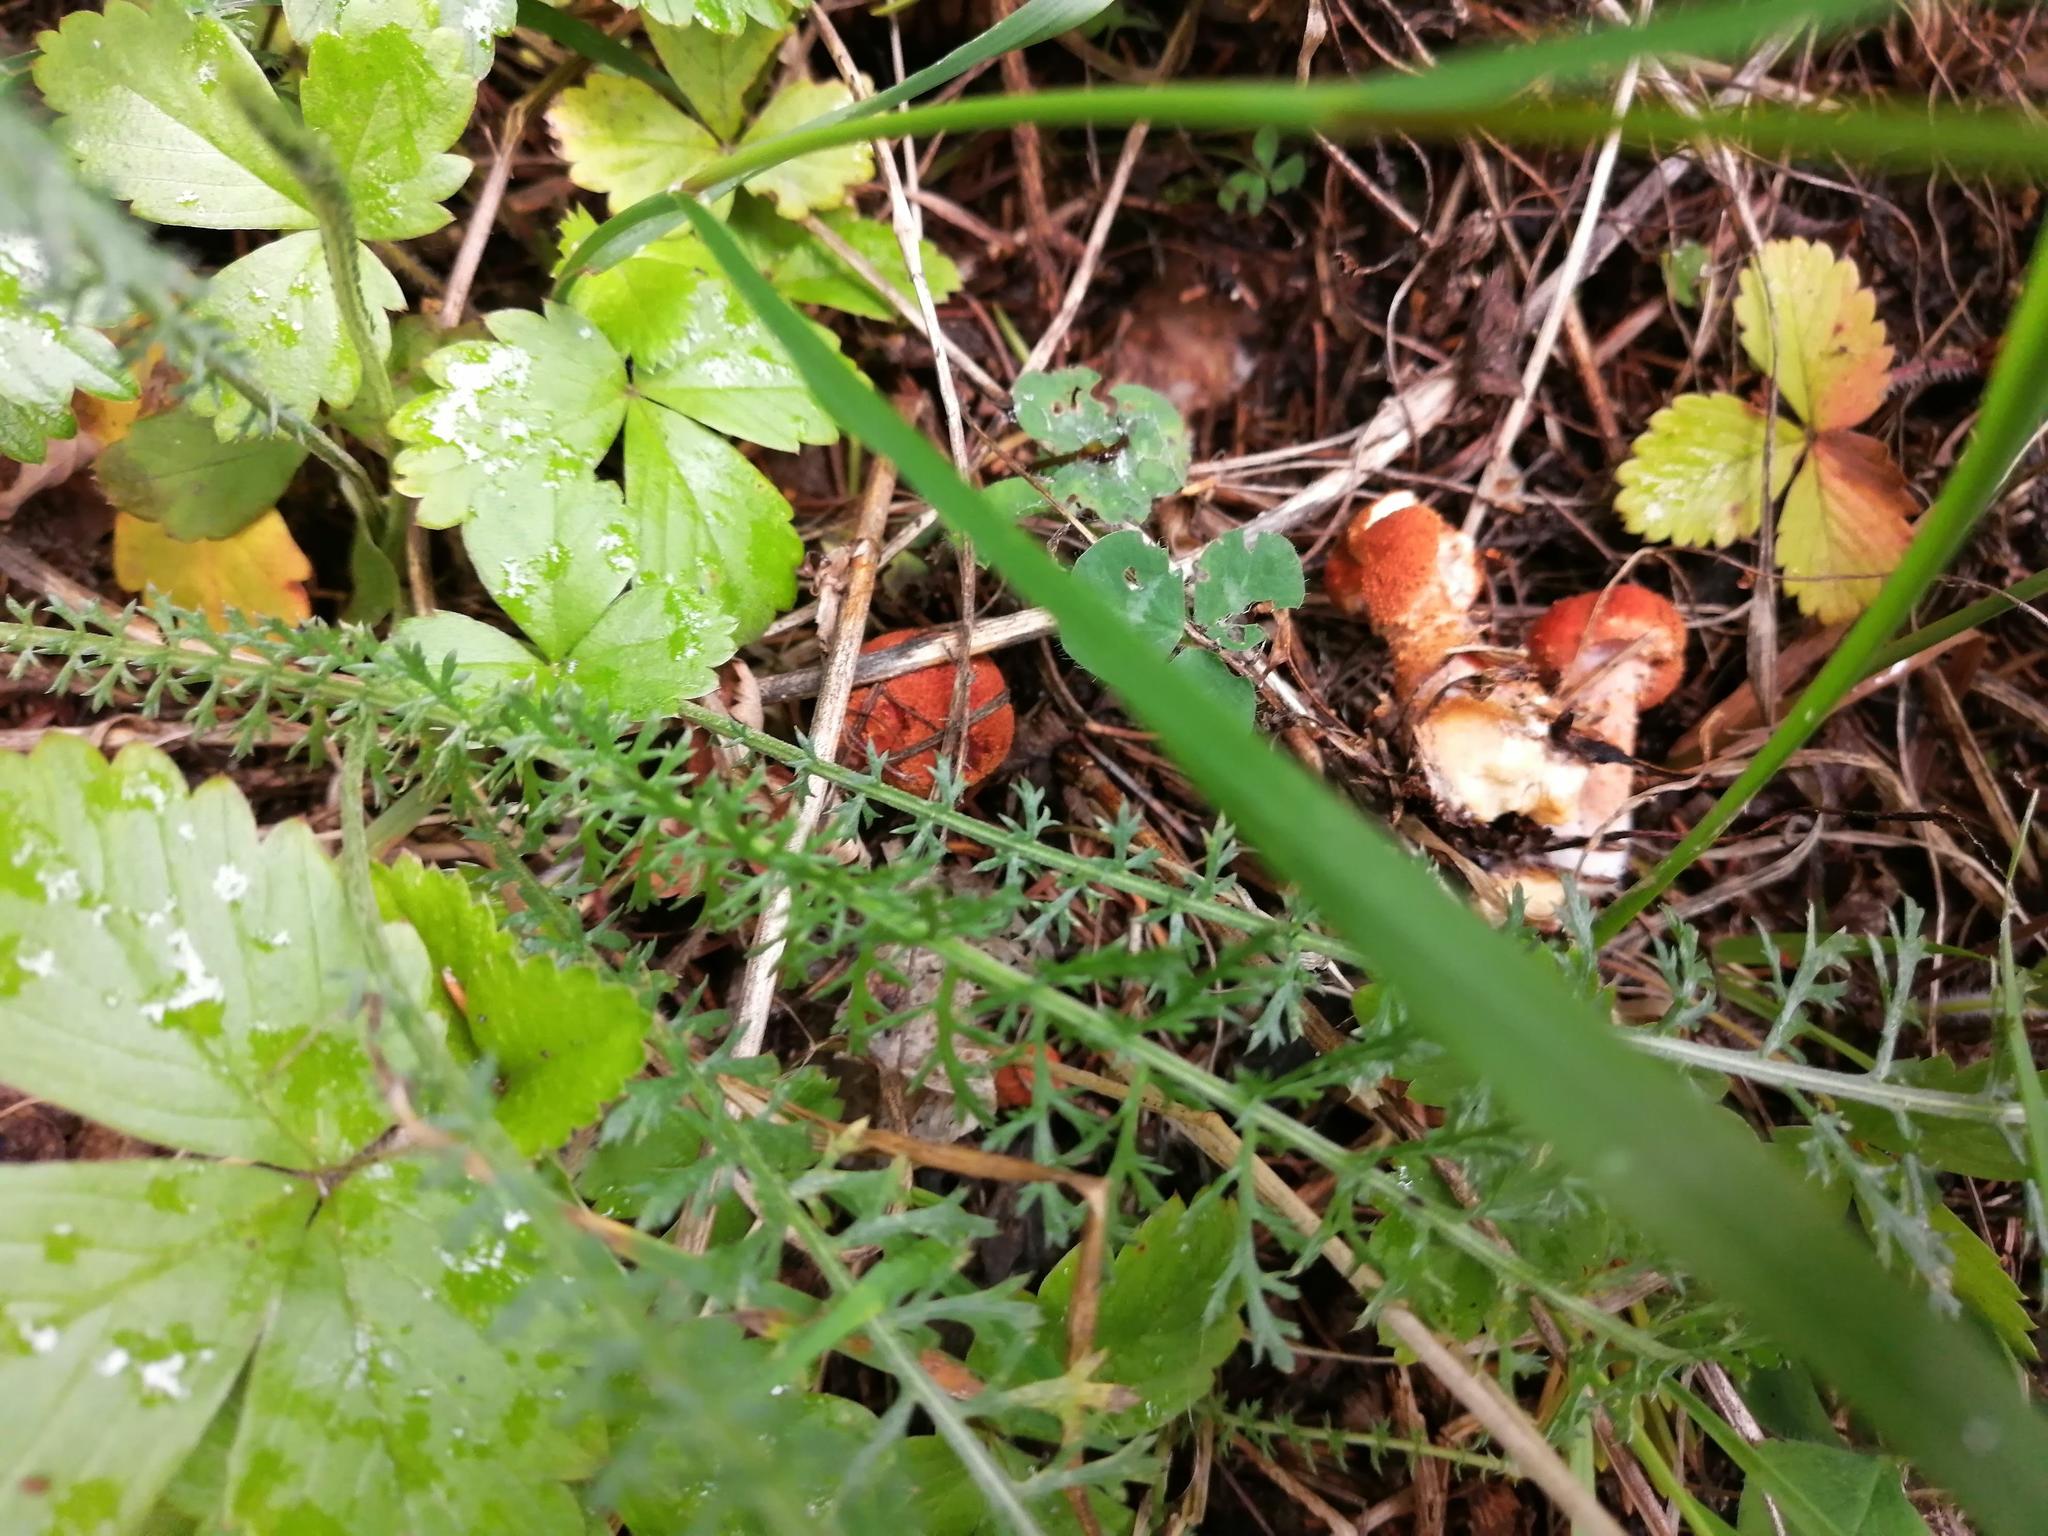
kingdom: Fungi
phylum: Basidiomycota
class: Agaricomycetes
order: Agaricales
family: Agaricaceae
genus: Cystodermella
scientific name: Cystodermella cinnabarina
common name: Cinnabar powdercap
